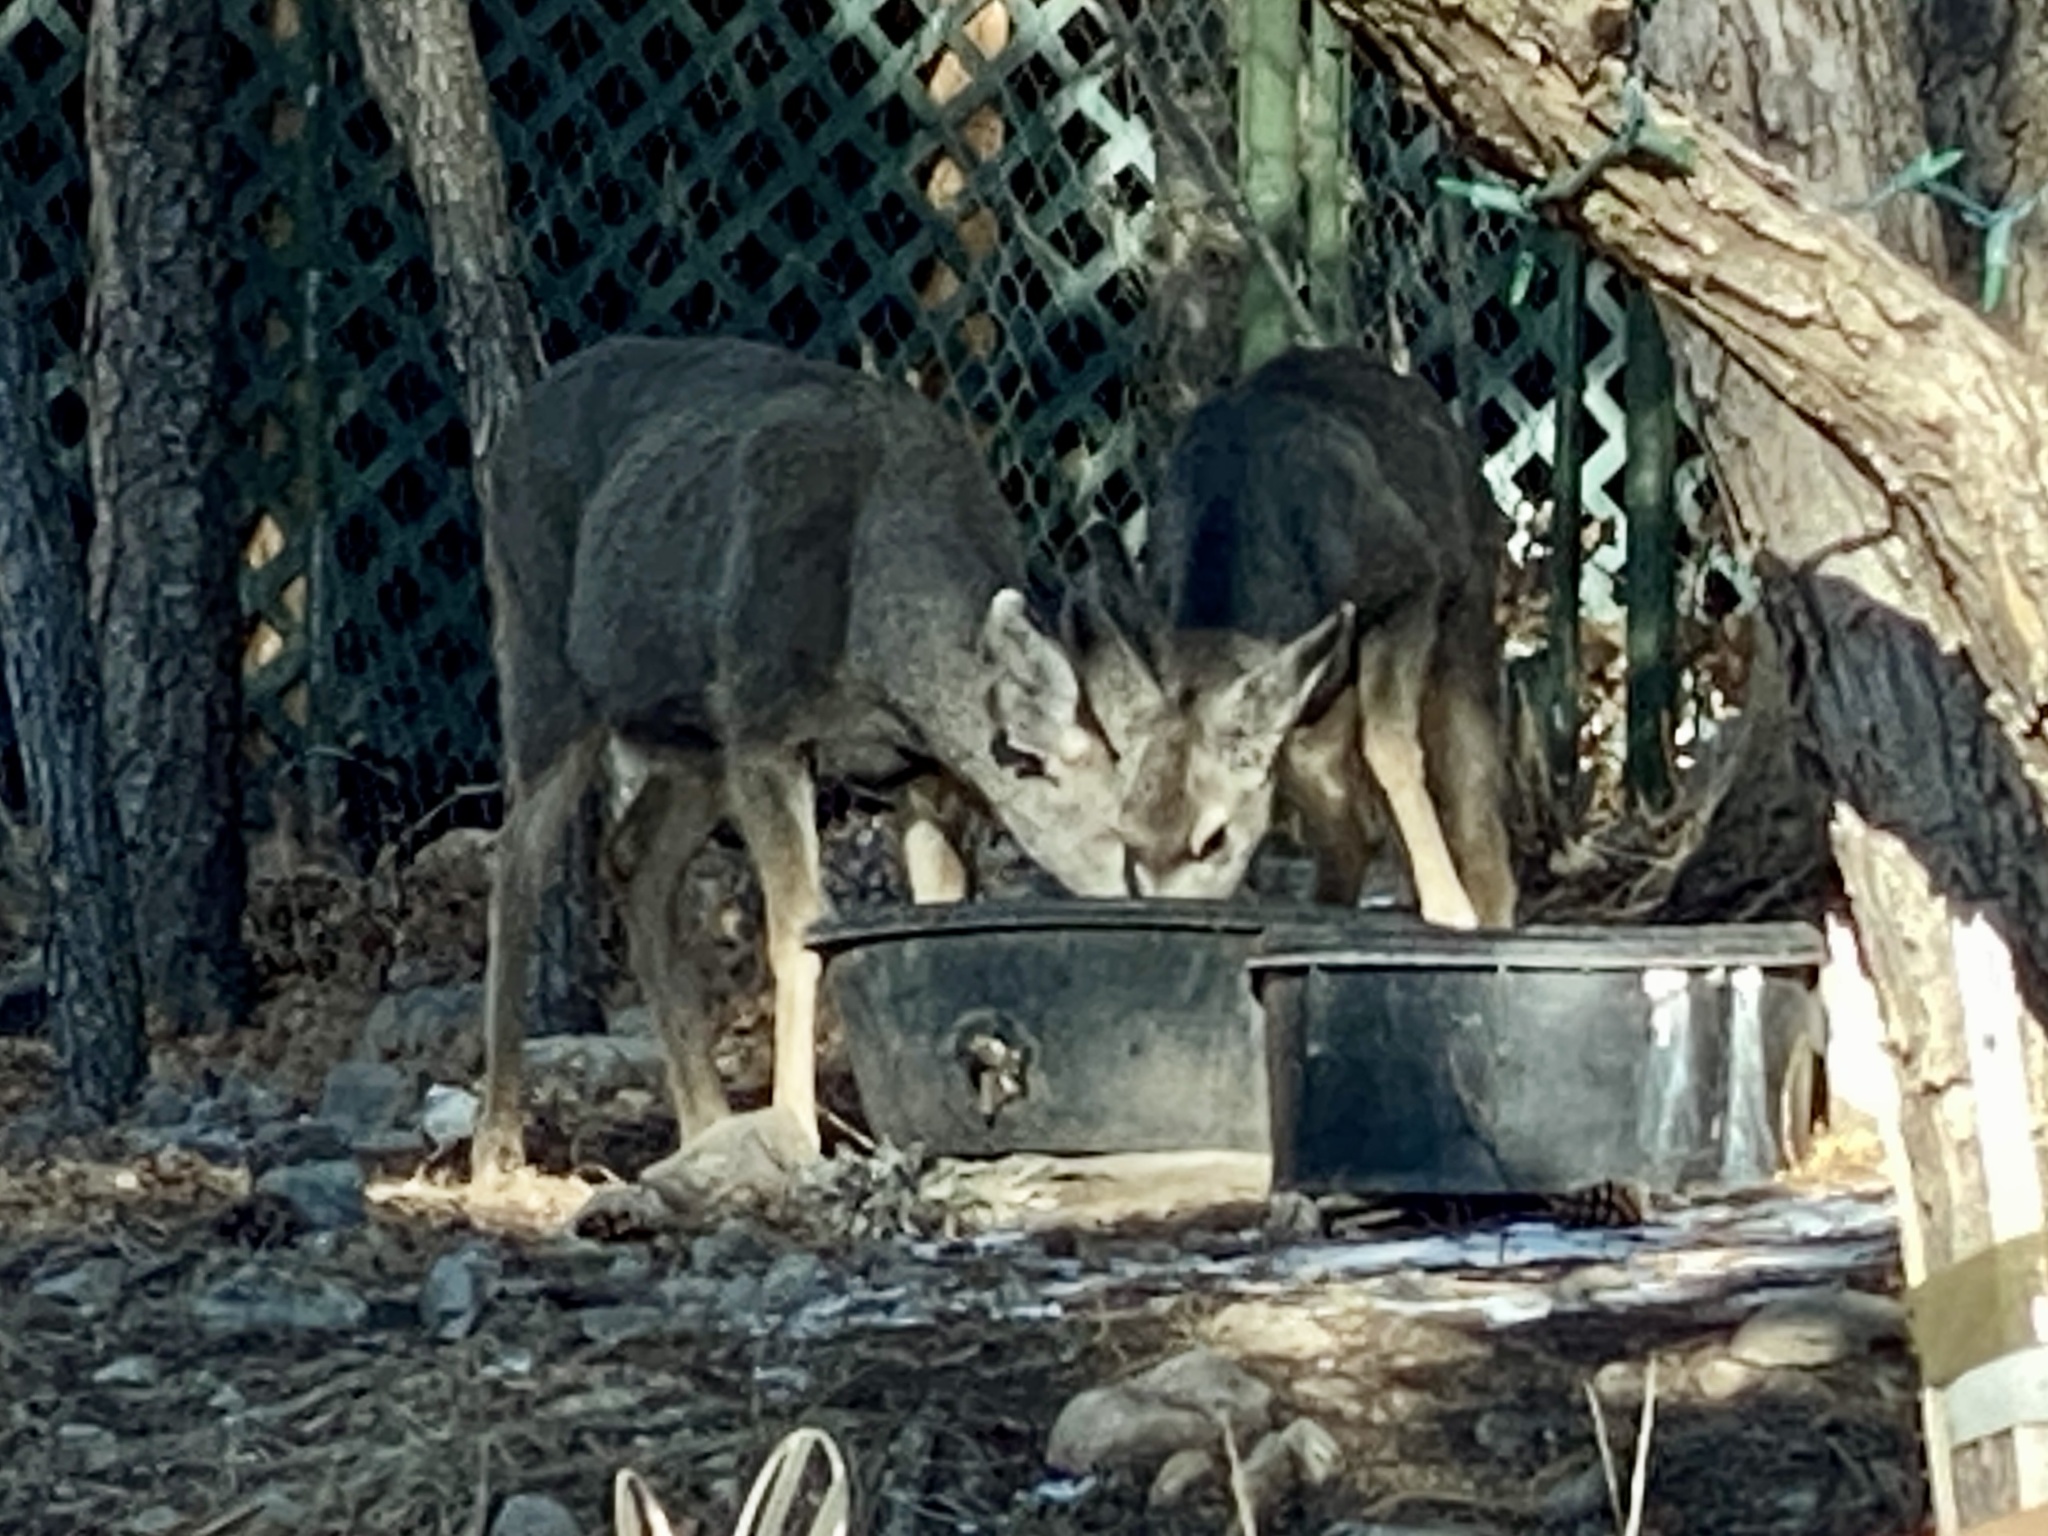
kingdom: Animalia
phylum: Chordata
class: Mammalia
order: Artiodactyla
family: Cervidae
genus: Odocoileus
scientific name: Odocoileus hemionus
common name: Mule deer
